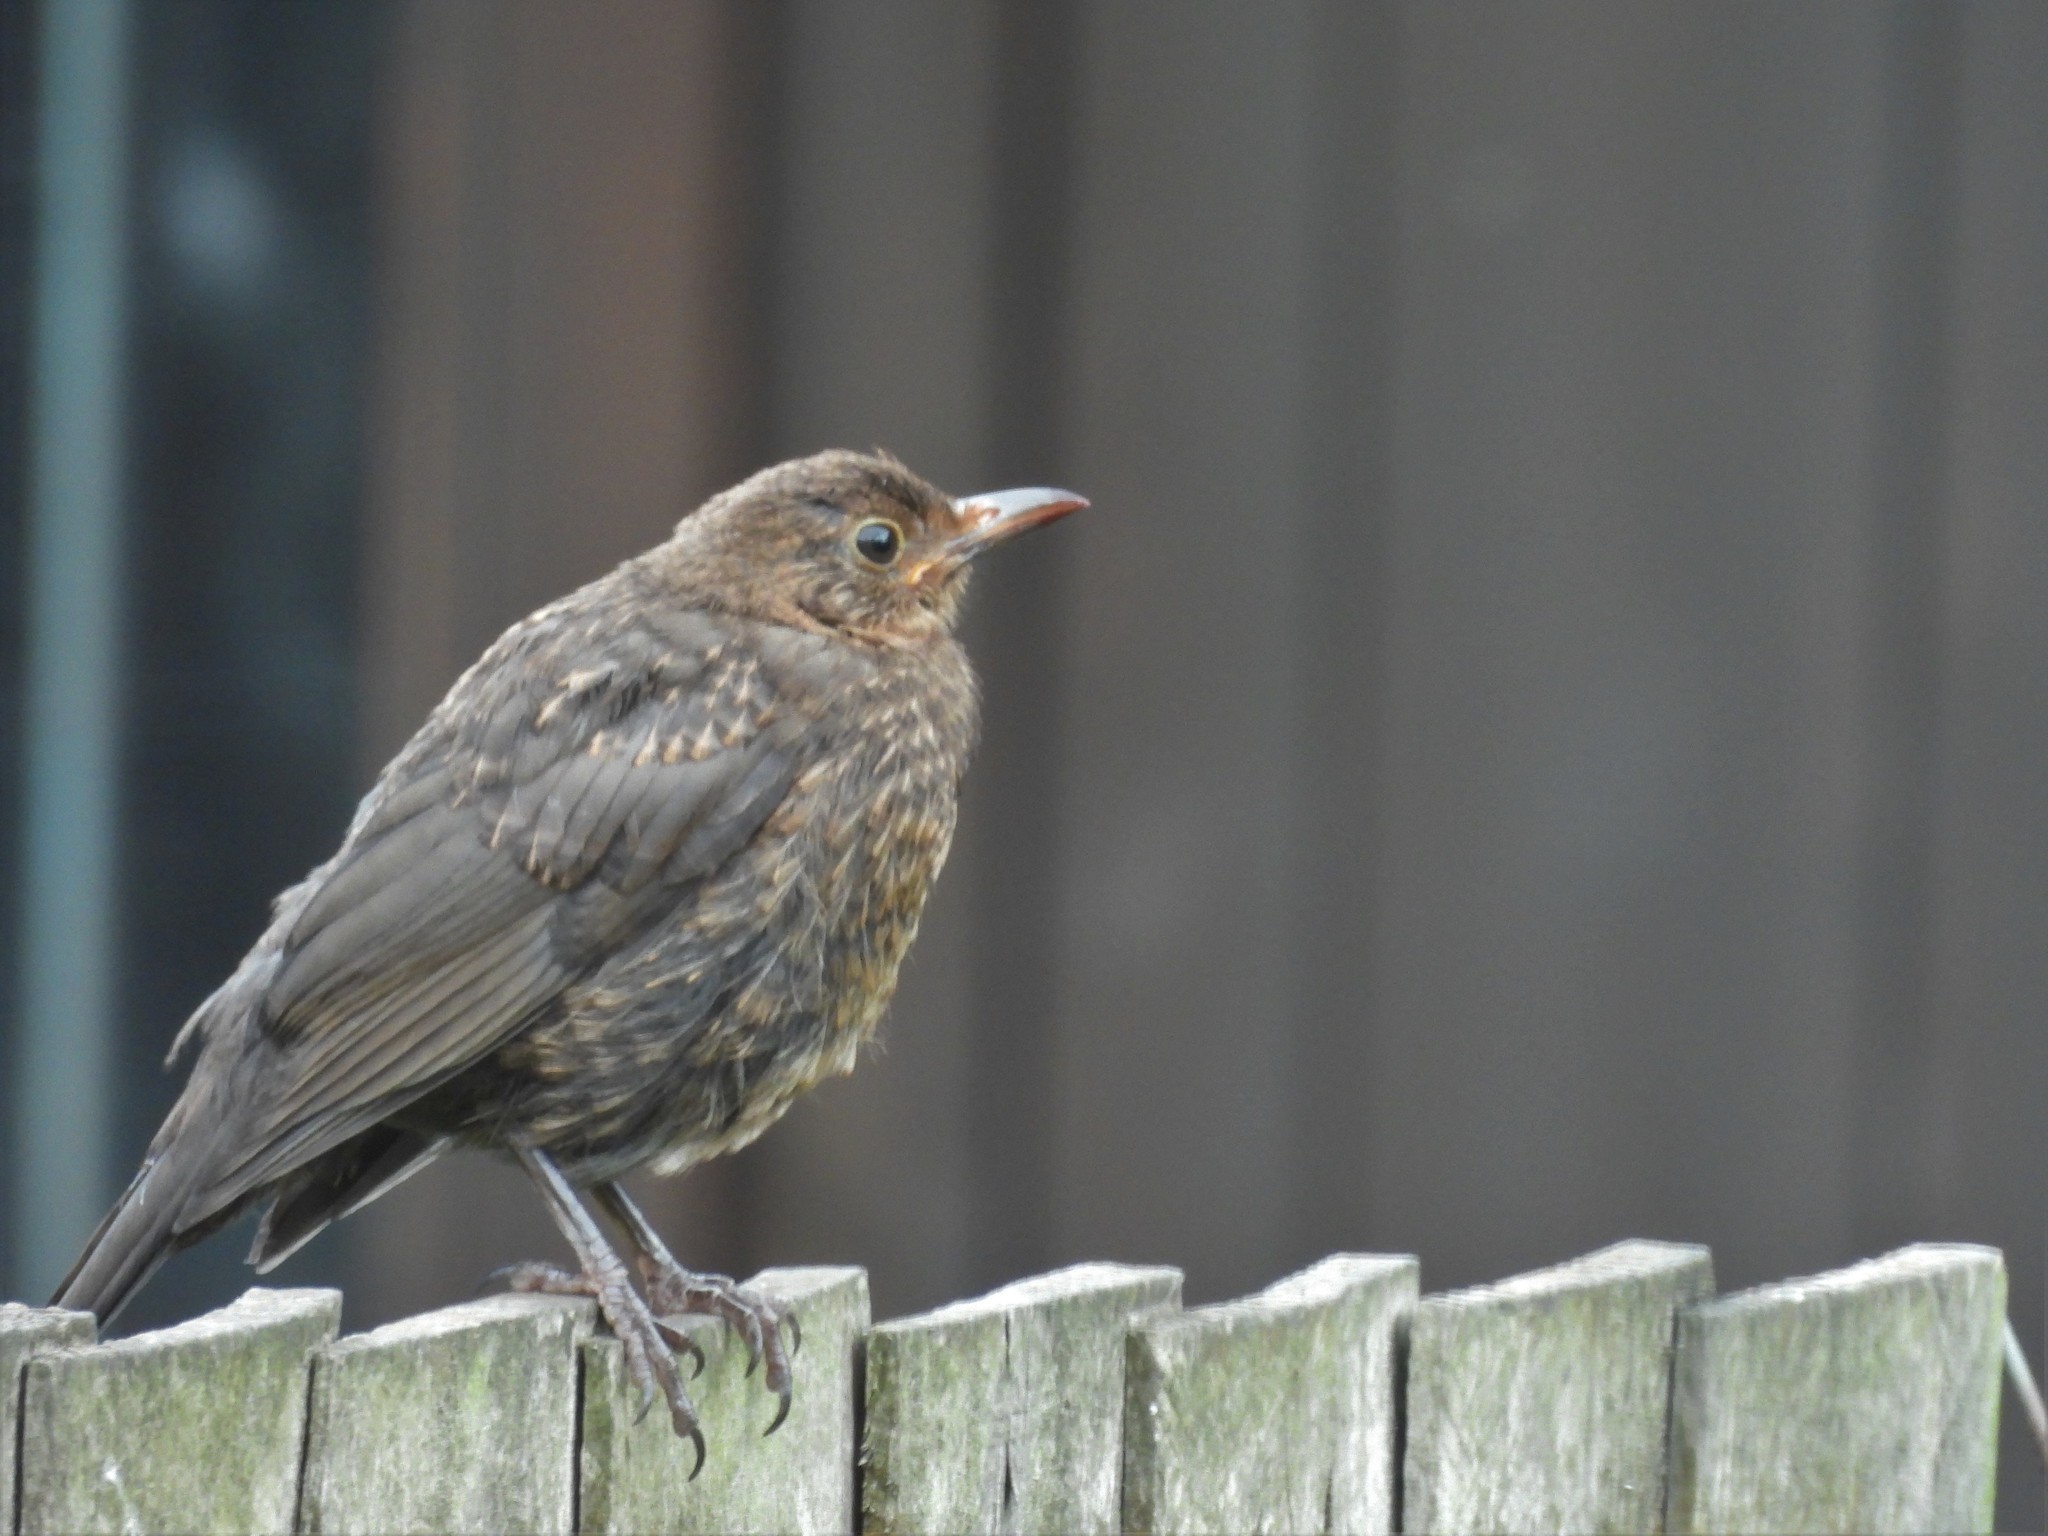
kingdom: Animalia
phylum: Chordata
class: Aves
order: Passeriformes
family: Turdidae
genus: Turdus
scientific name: Turdus merula
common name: Common blackbird
